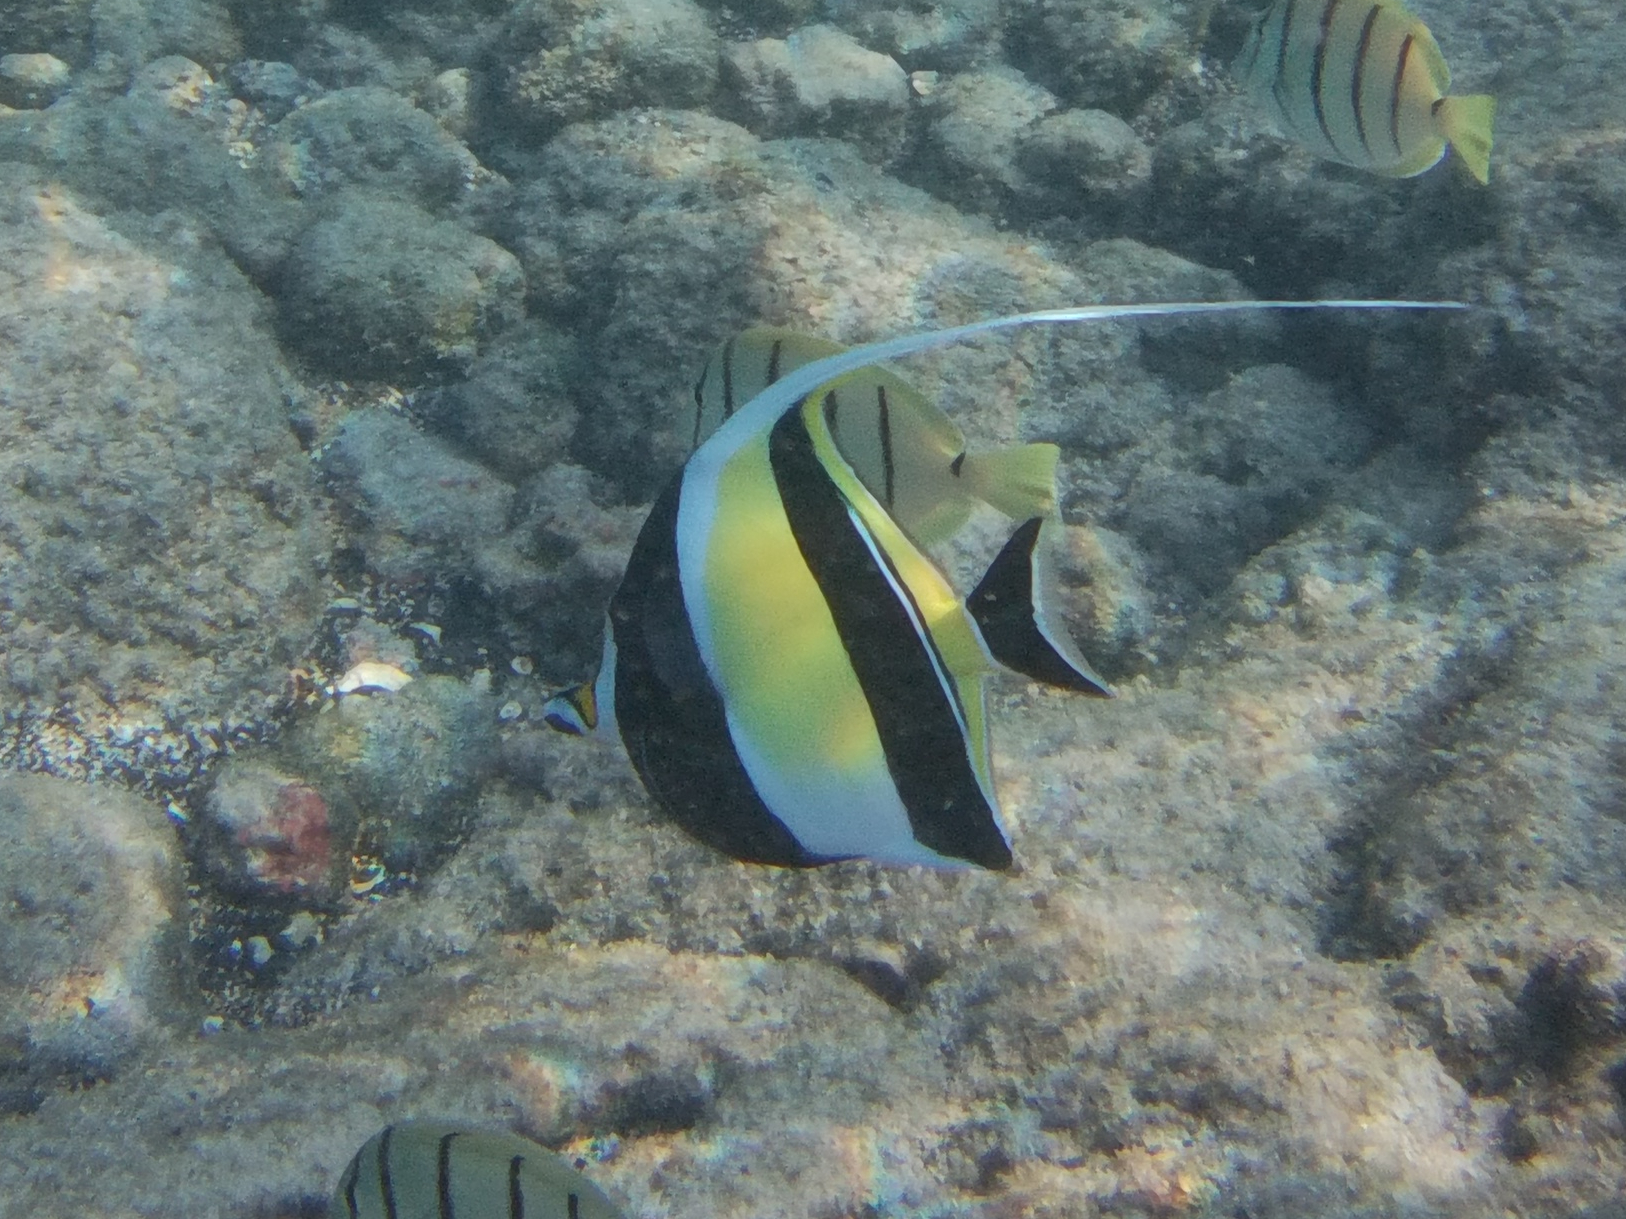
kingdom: Animalia
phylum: Chordata
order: Perciformes
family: Zanclidae
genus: Zanclus
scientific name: Zanclus cornutus
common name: Moorish idol
